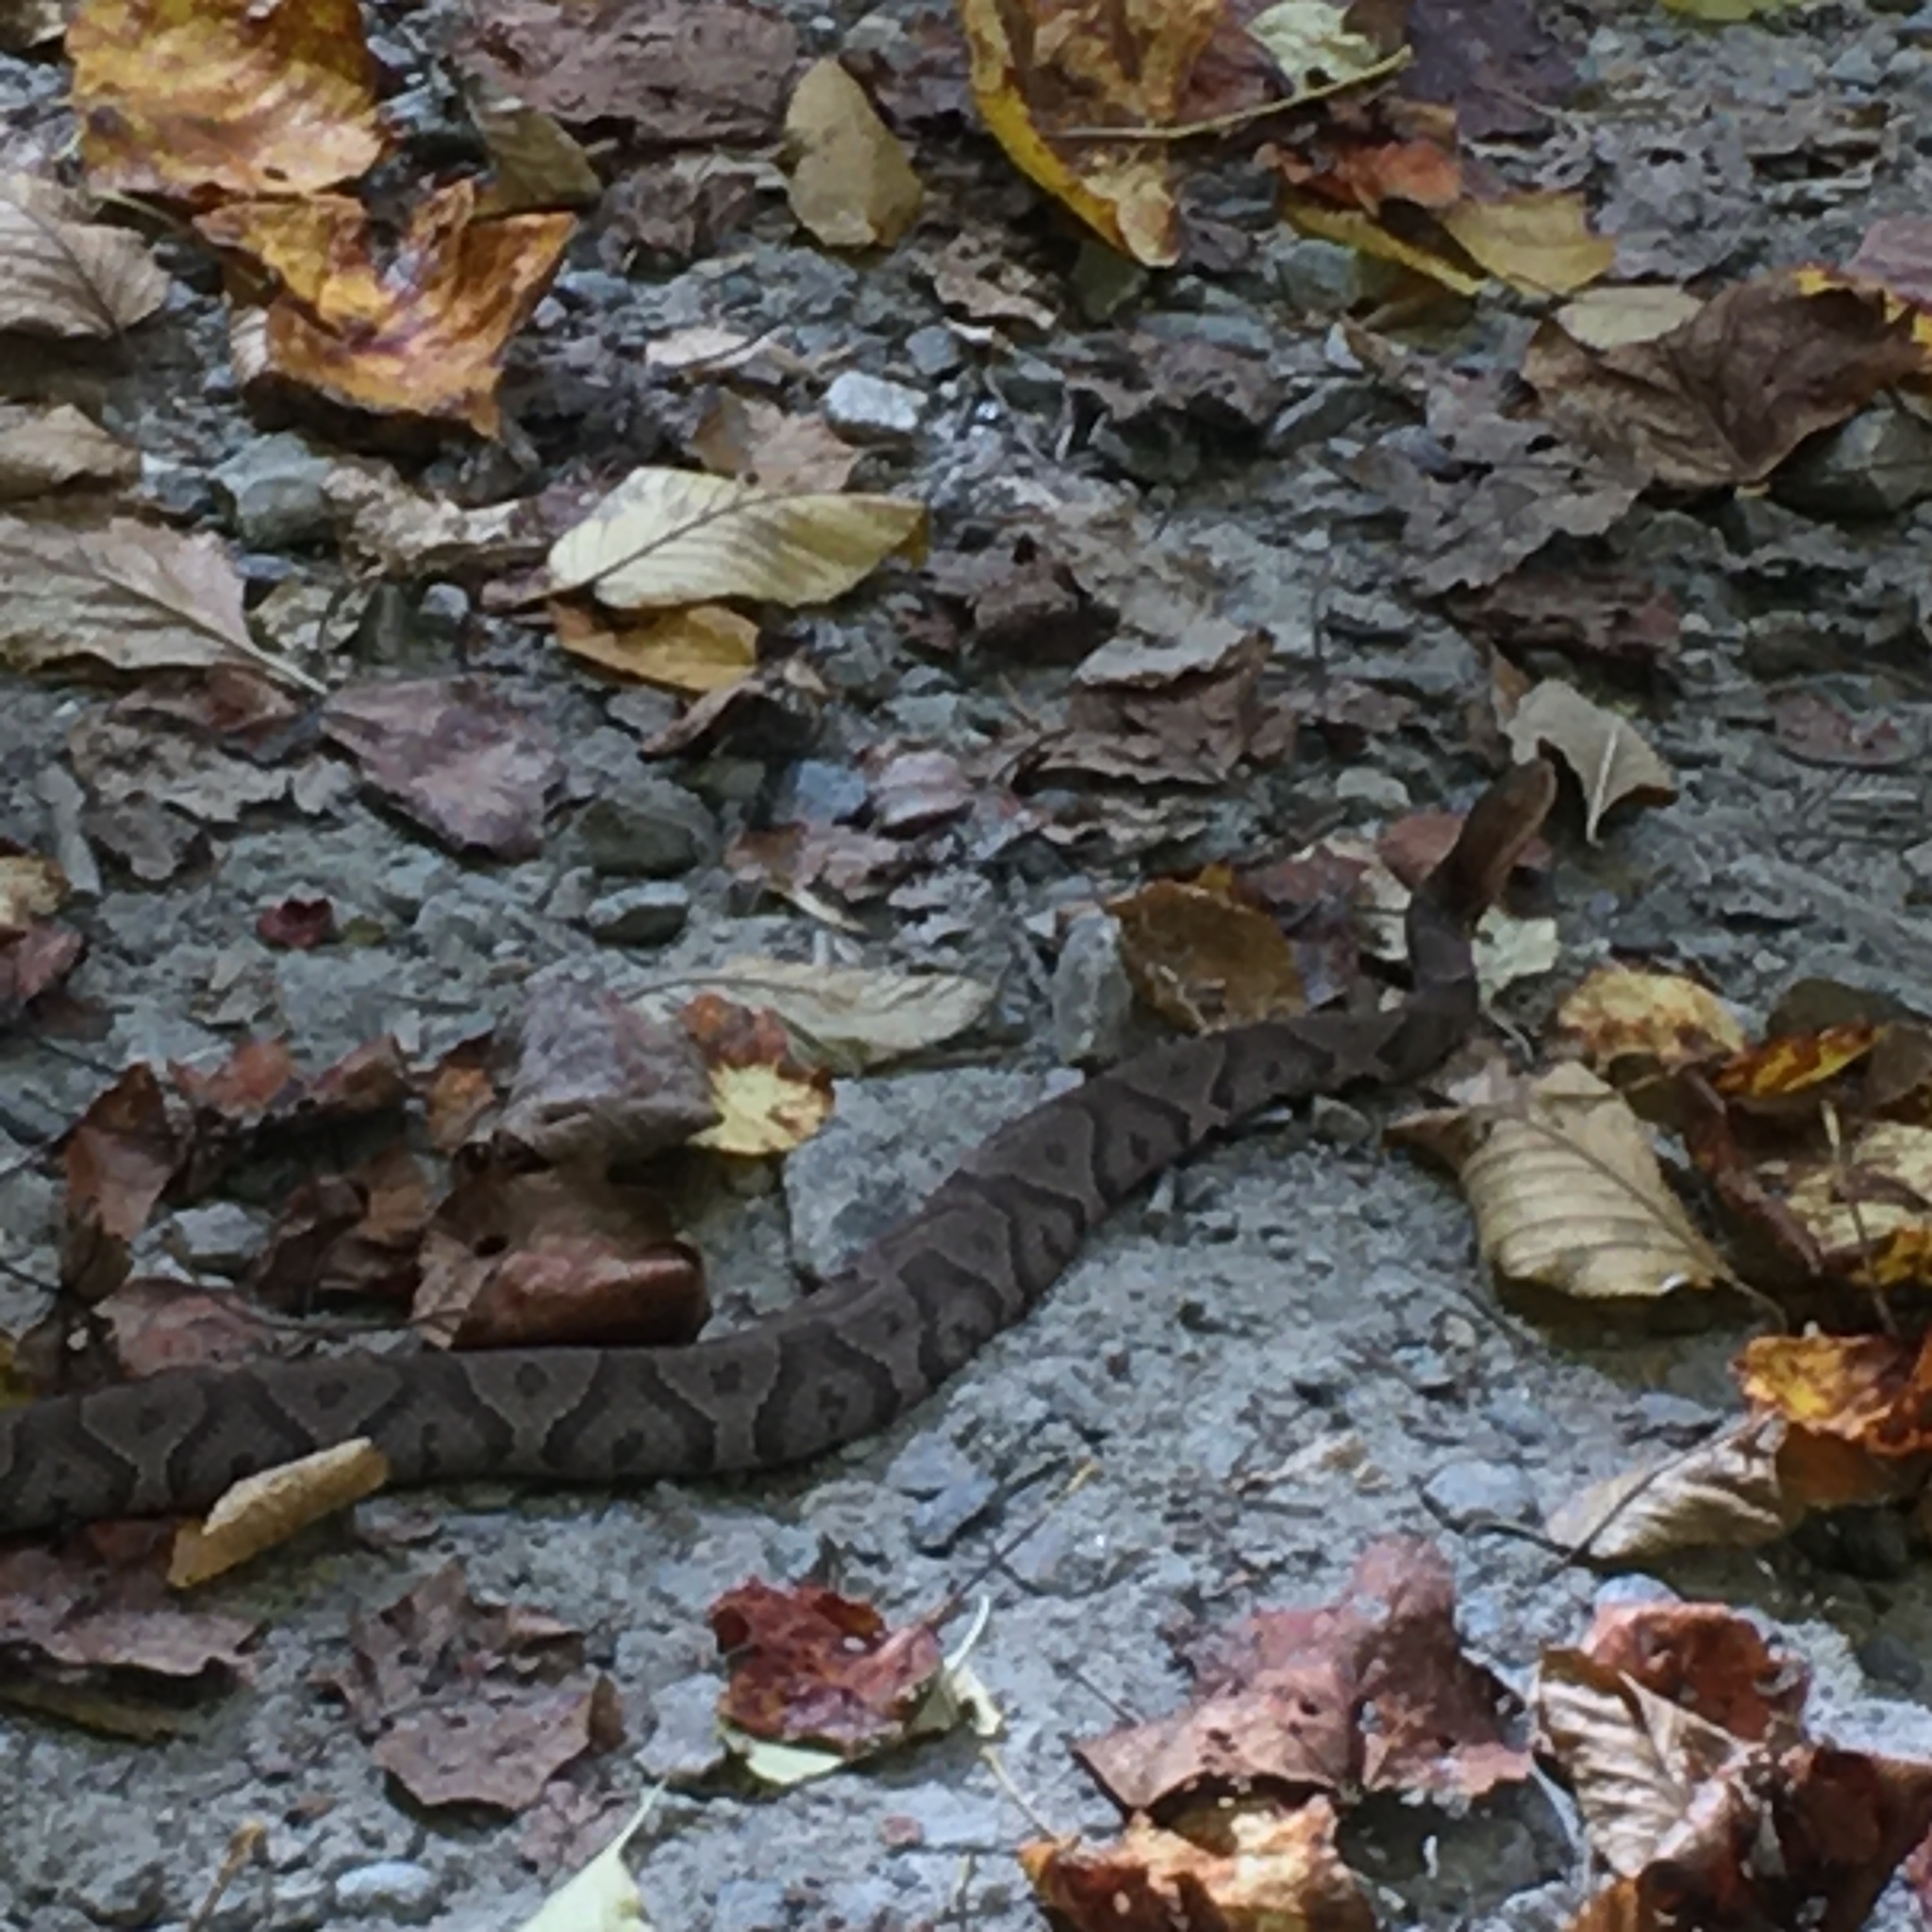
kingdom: Animalia
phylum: Chordata
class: Squamata
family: Viperidae
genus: Agkistrodon
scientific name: Agkistrodon contortrix
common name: Northern copperhead
